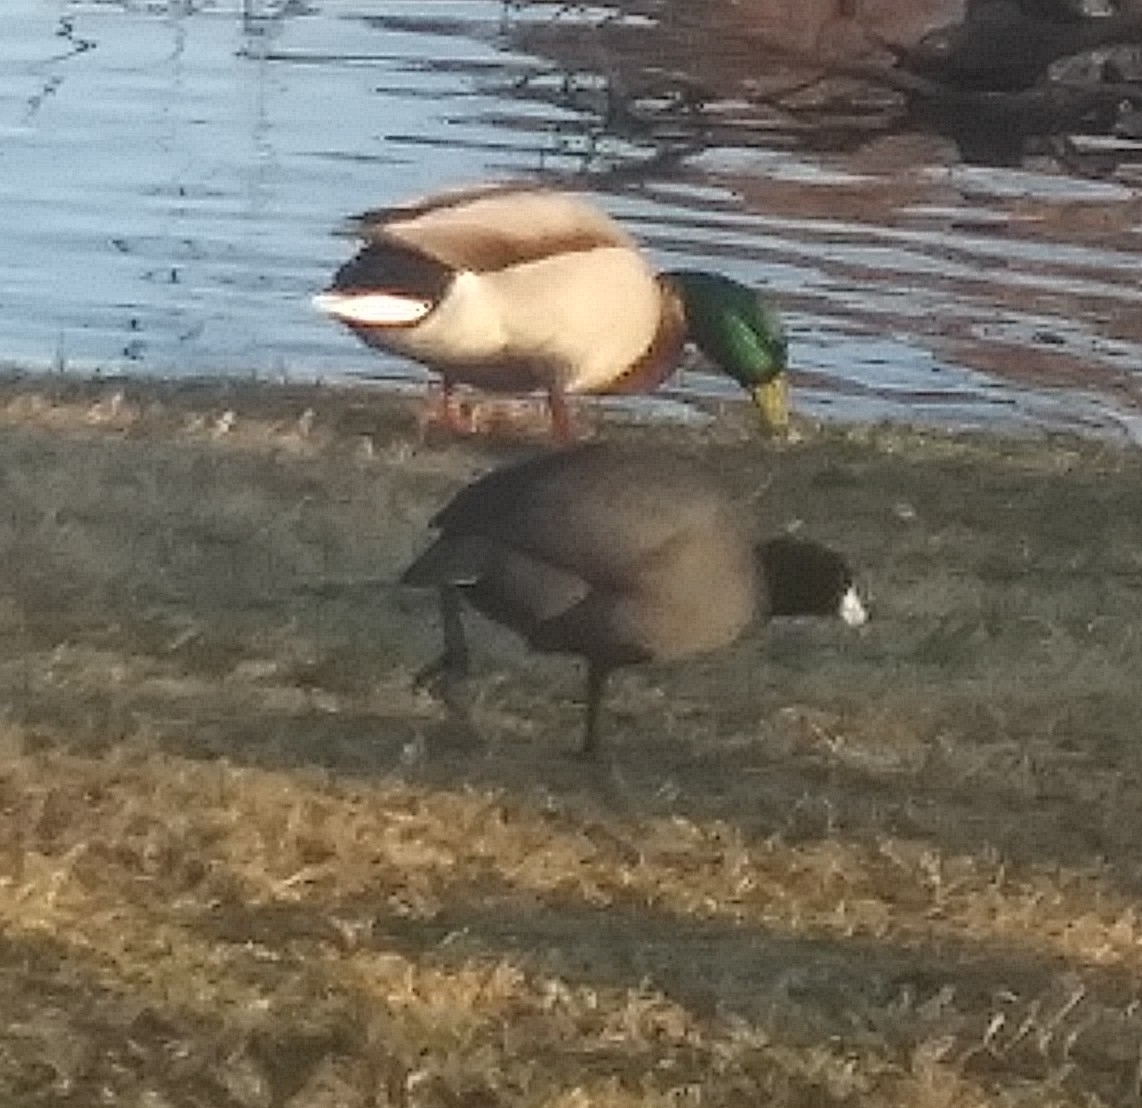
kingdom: Animalia
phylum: Chordata
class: Aves
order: Gruiformes
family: Rallidae
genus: Fulica
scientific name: Fulica americana
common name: American coot
